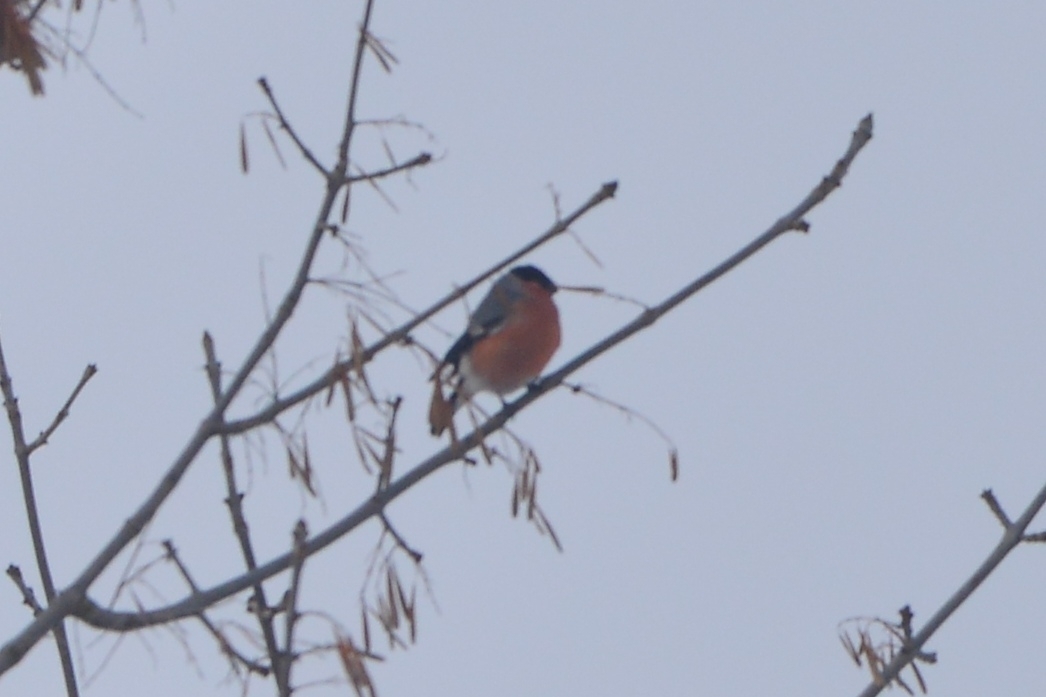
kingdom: Animalia
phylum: Chordata
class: Aves
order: Passeriformes
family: Fringillidae
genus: Pyrrhula
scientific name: Pyrrhula pyrrhula
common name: Eurasian bullfinch
